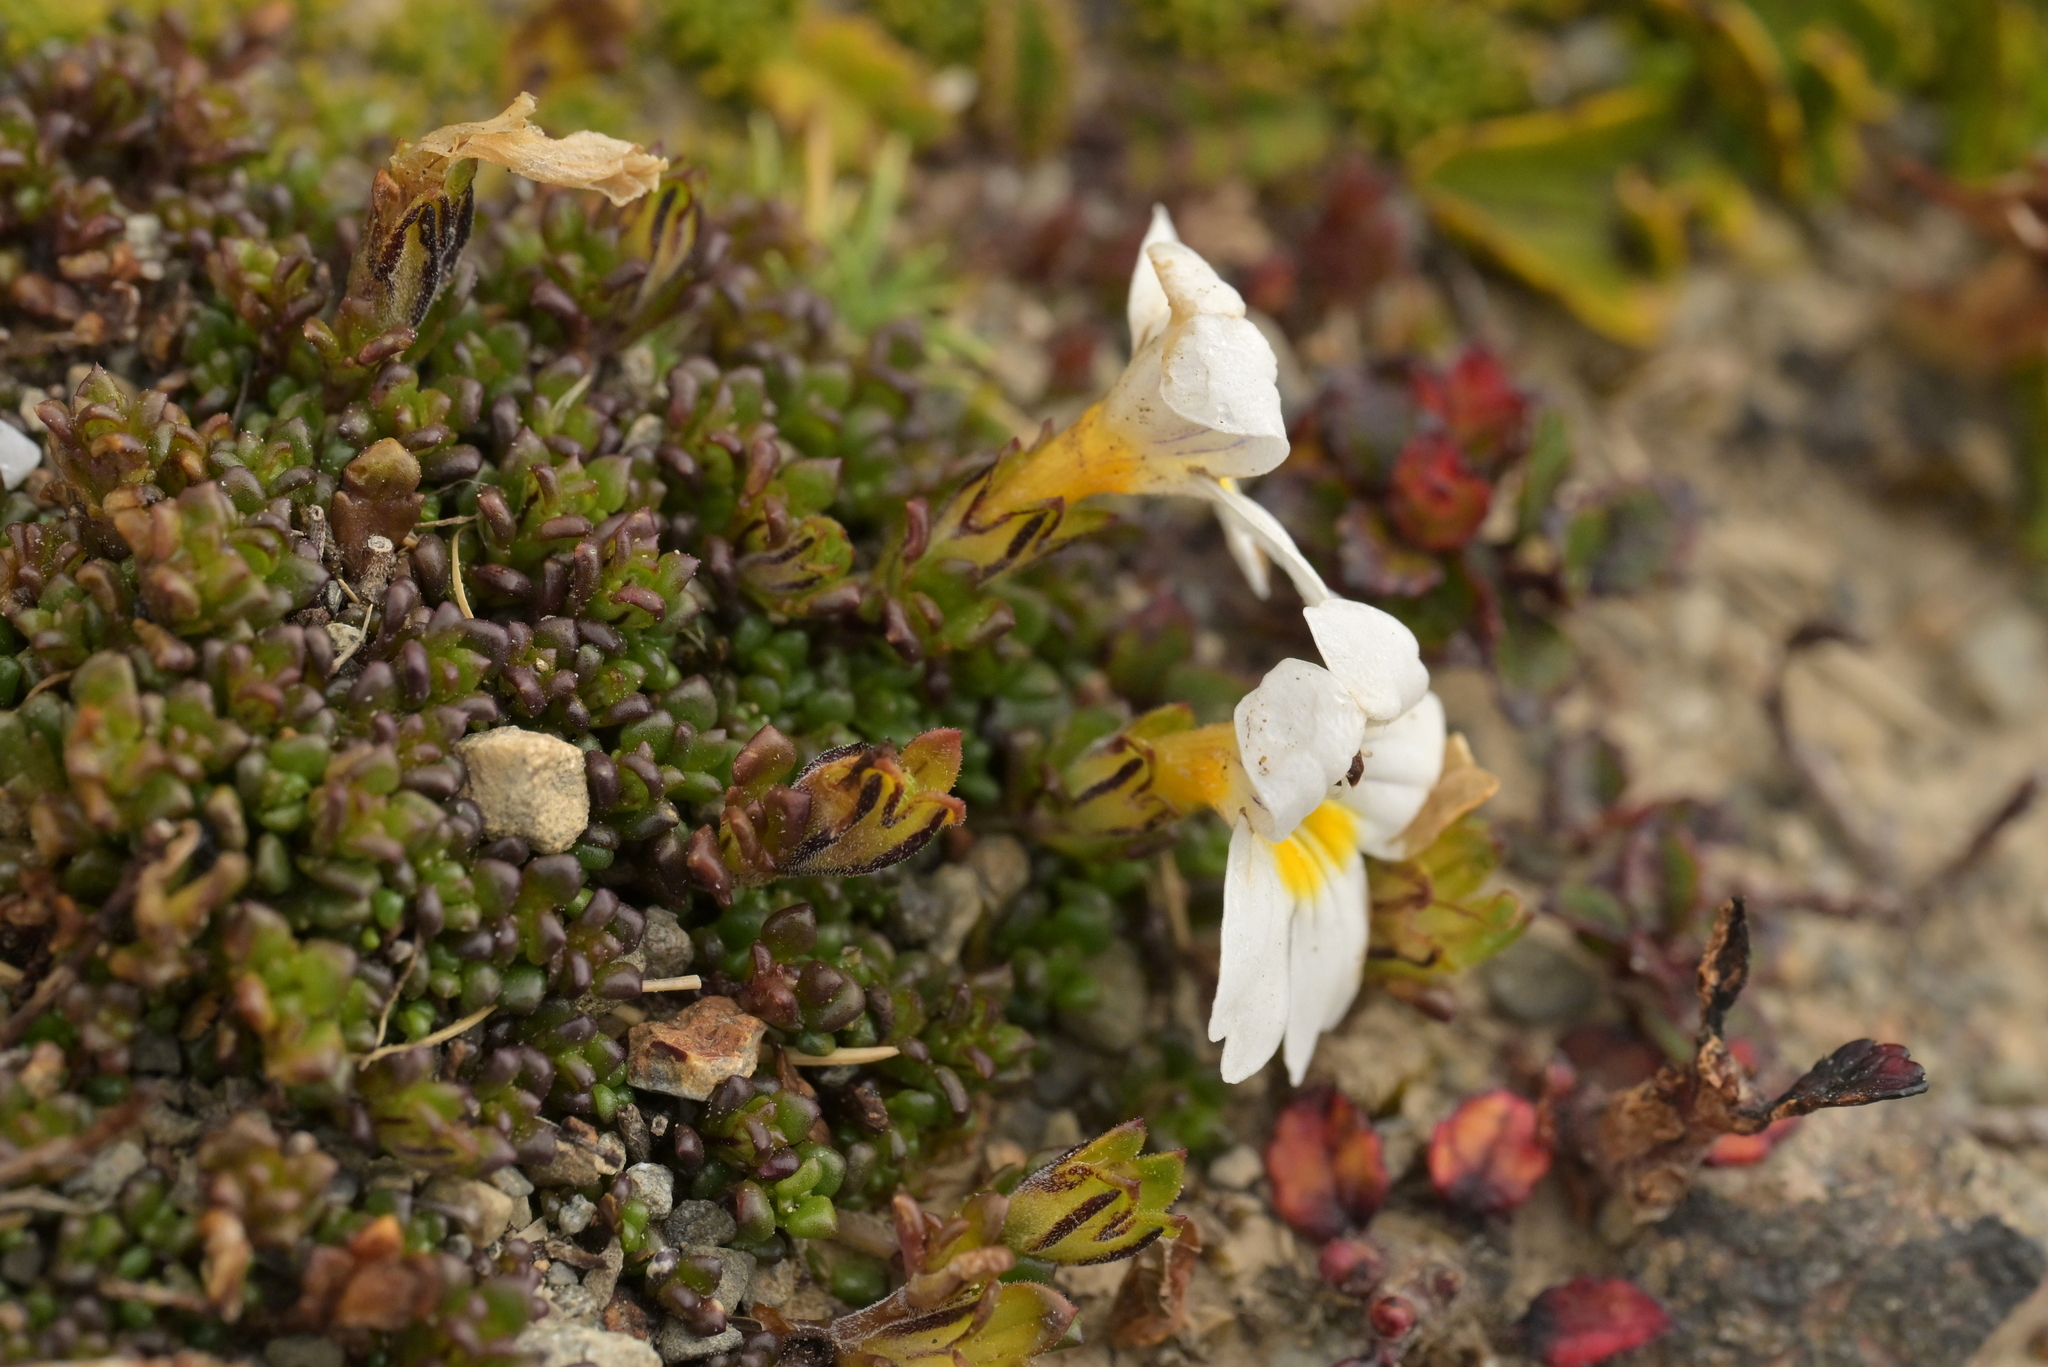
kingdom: Plantae
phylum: Tracheophyta
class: Magnoliopsida
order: Lamiales
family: Orobanchaceae
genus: Euphrasia
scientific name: Euphrasia revoluta
